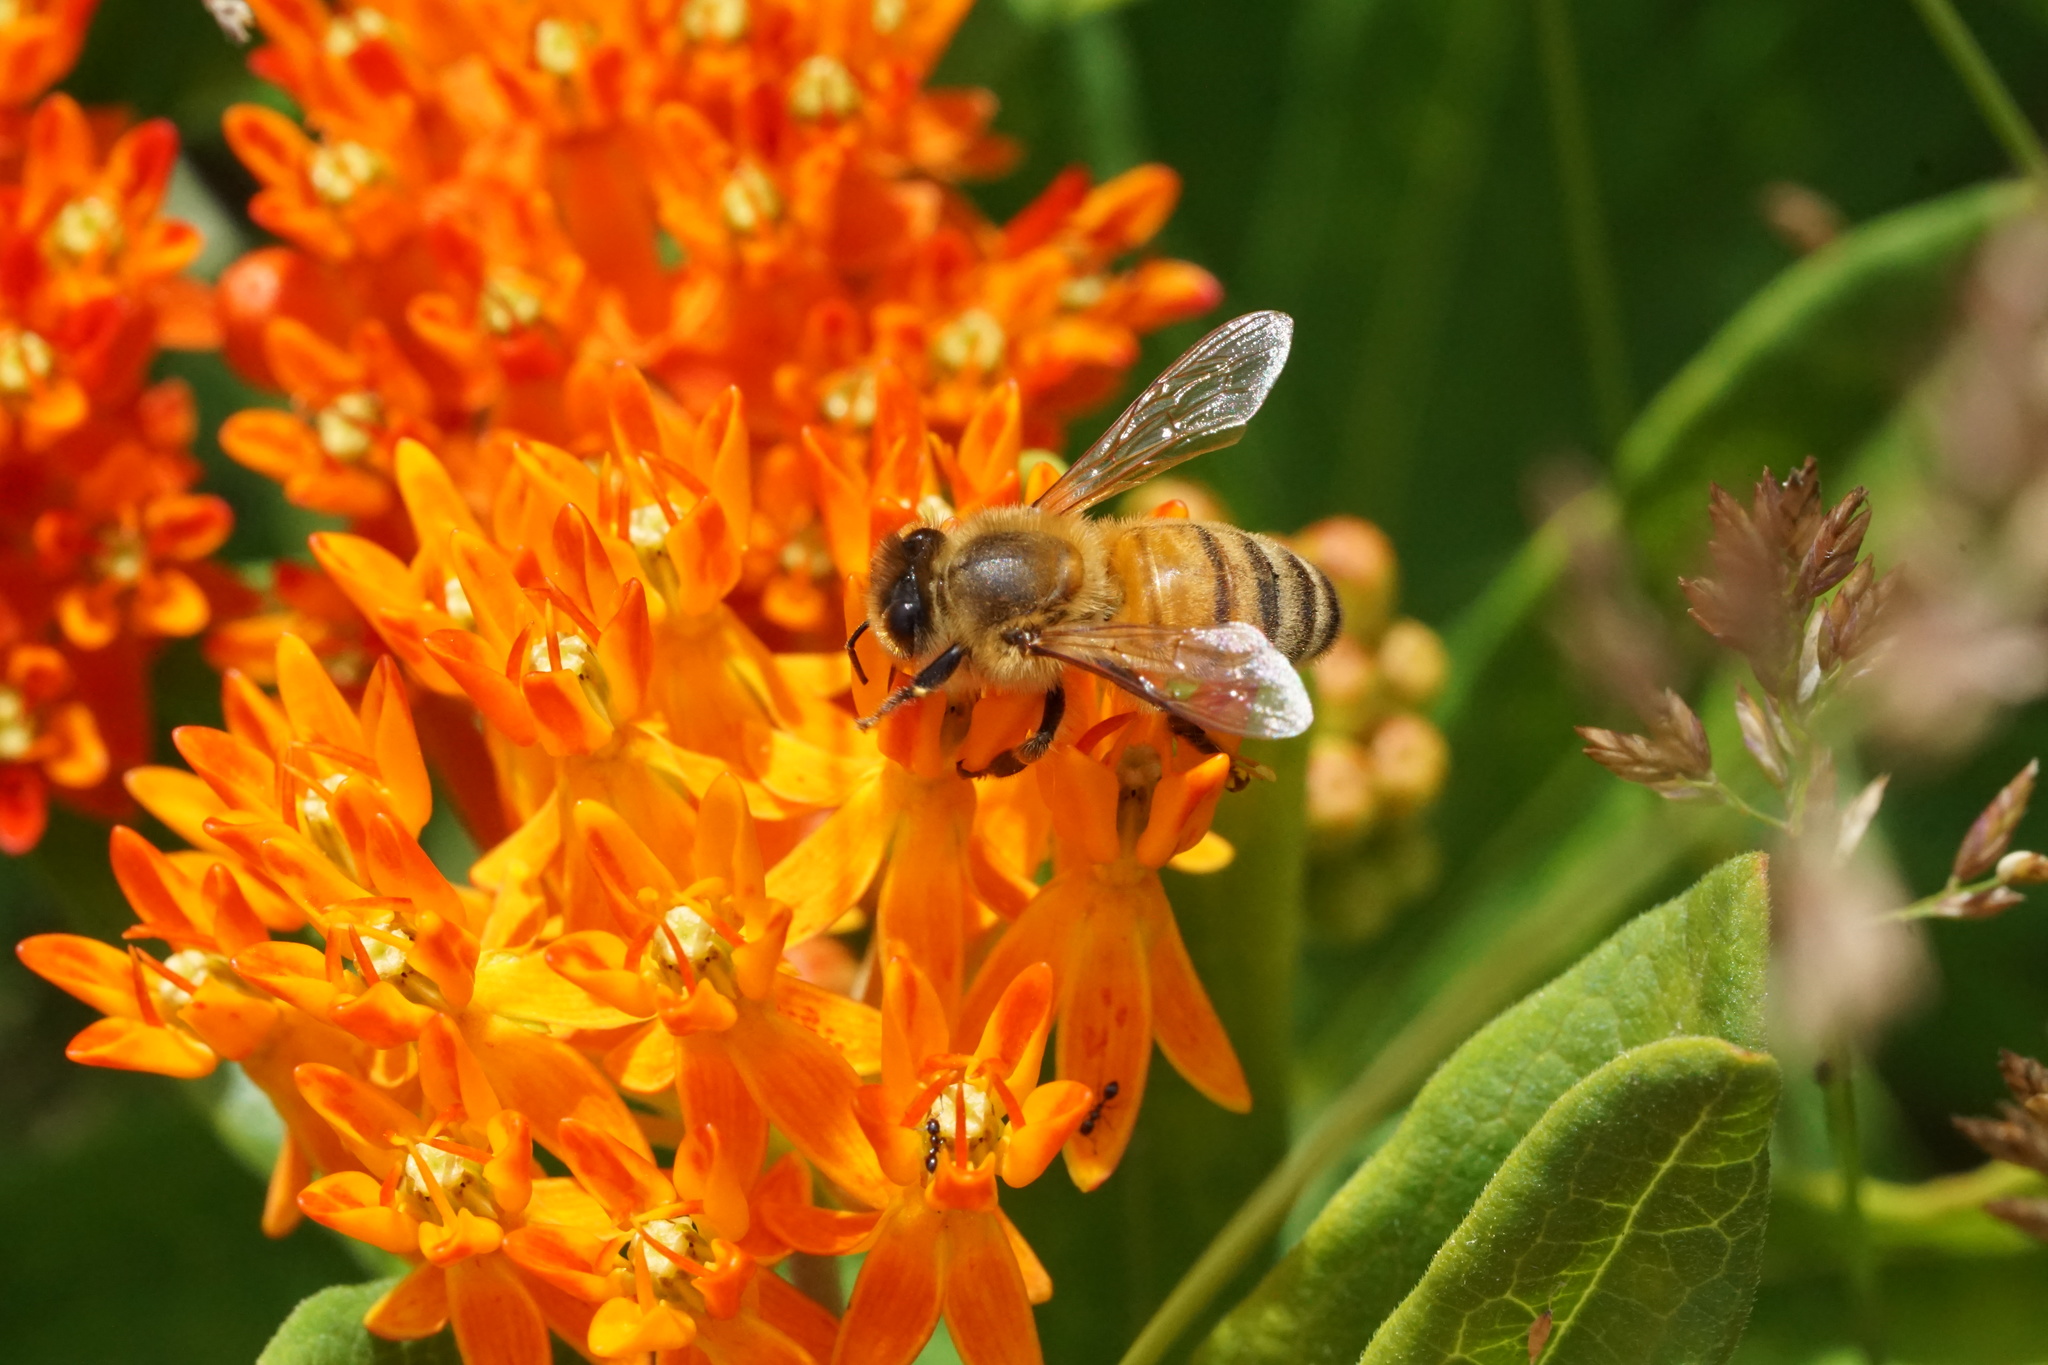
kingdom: Animalia
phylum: Arthropoda
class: Insecta
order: Hymenoptera
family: Apidae
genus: Apis
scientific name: Apis mellifera
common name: Honey bee
